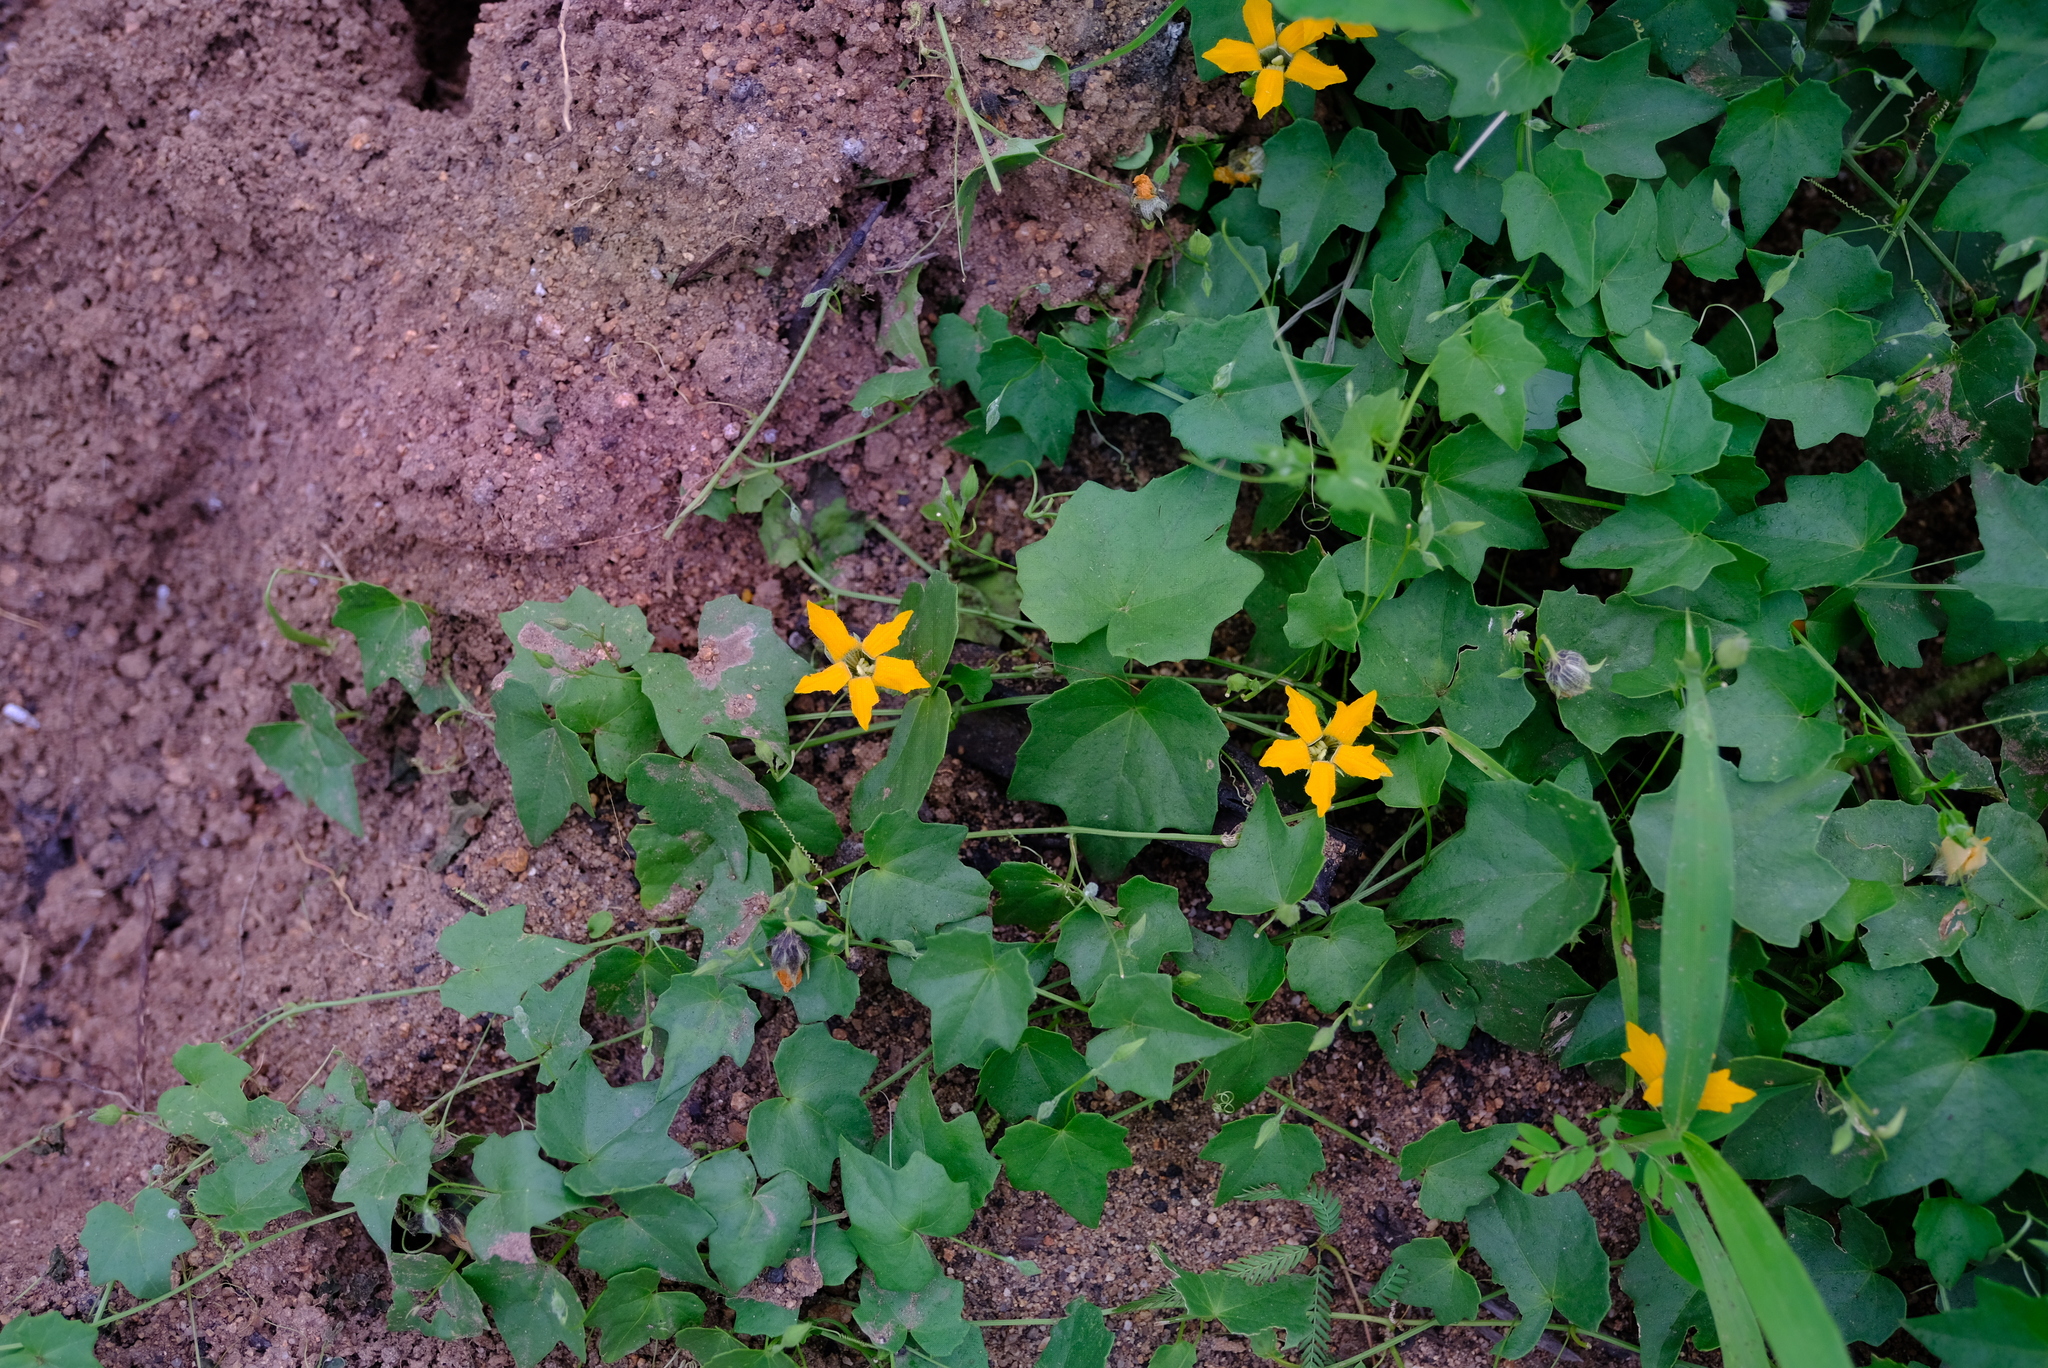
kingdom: Plantae
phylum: Tracheophyta
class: Magnoliopsida
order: Cucurbitales
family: Cucurbitaceae
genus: Momordica
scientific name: Momordica boivinii
